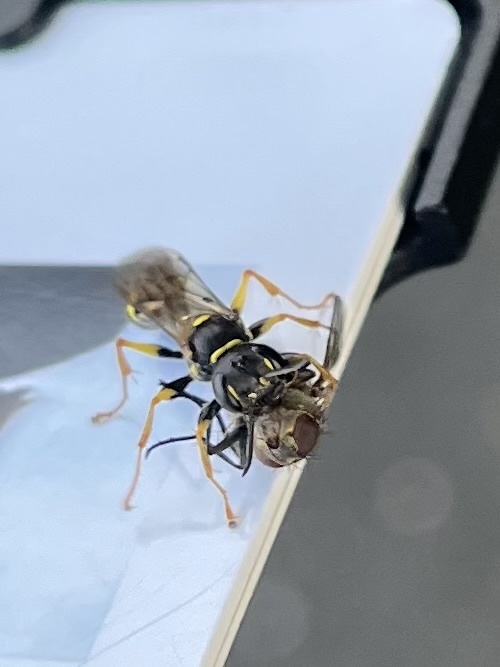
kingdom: Animalia
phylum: Arthropoda
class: Insecta
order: Hymenoptera
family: Crabronidae
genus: Mellinus
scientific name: Mellinus arvensis
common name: Field digger wasp
